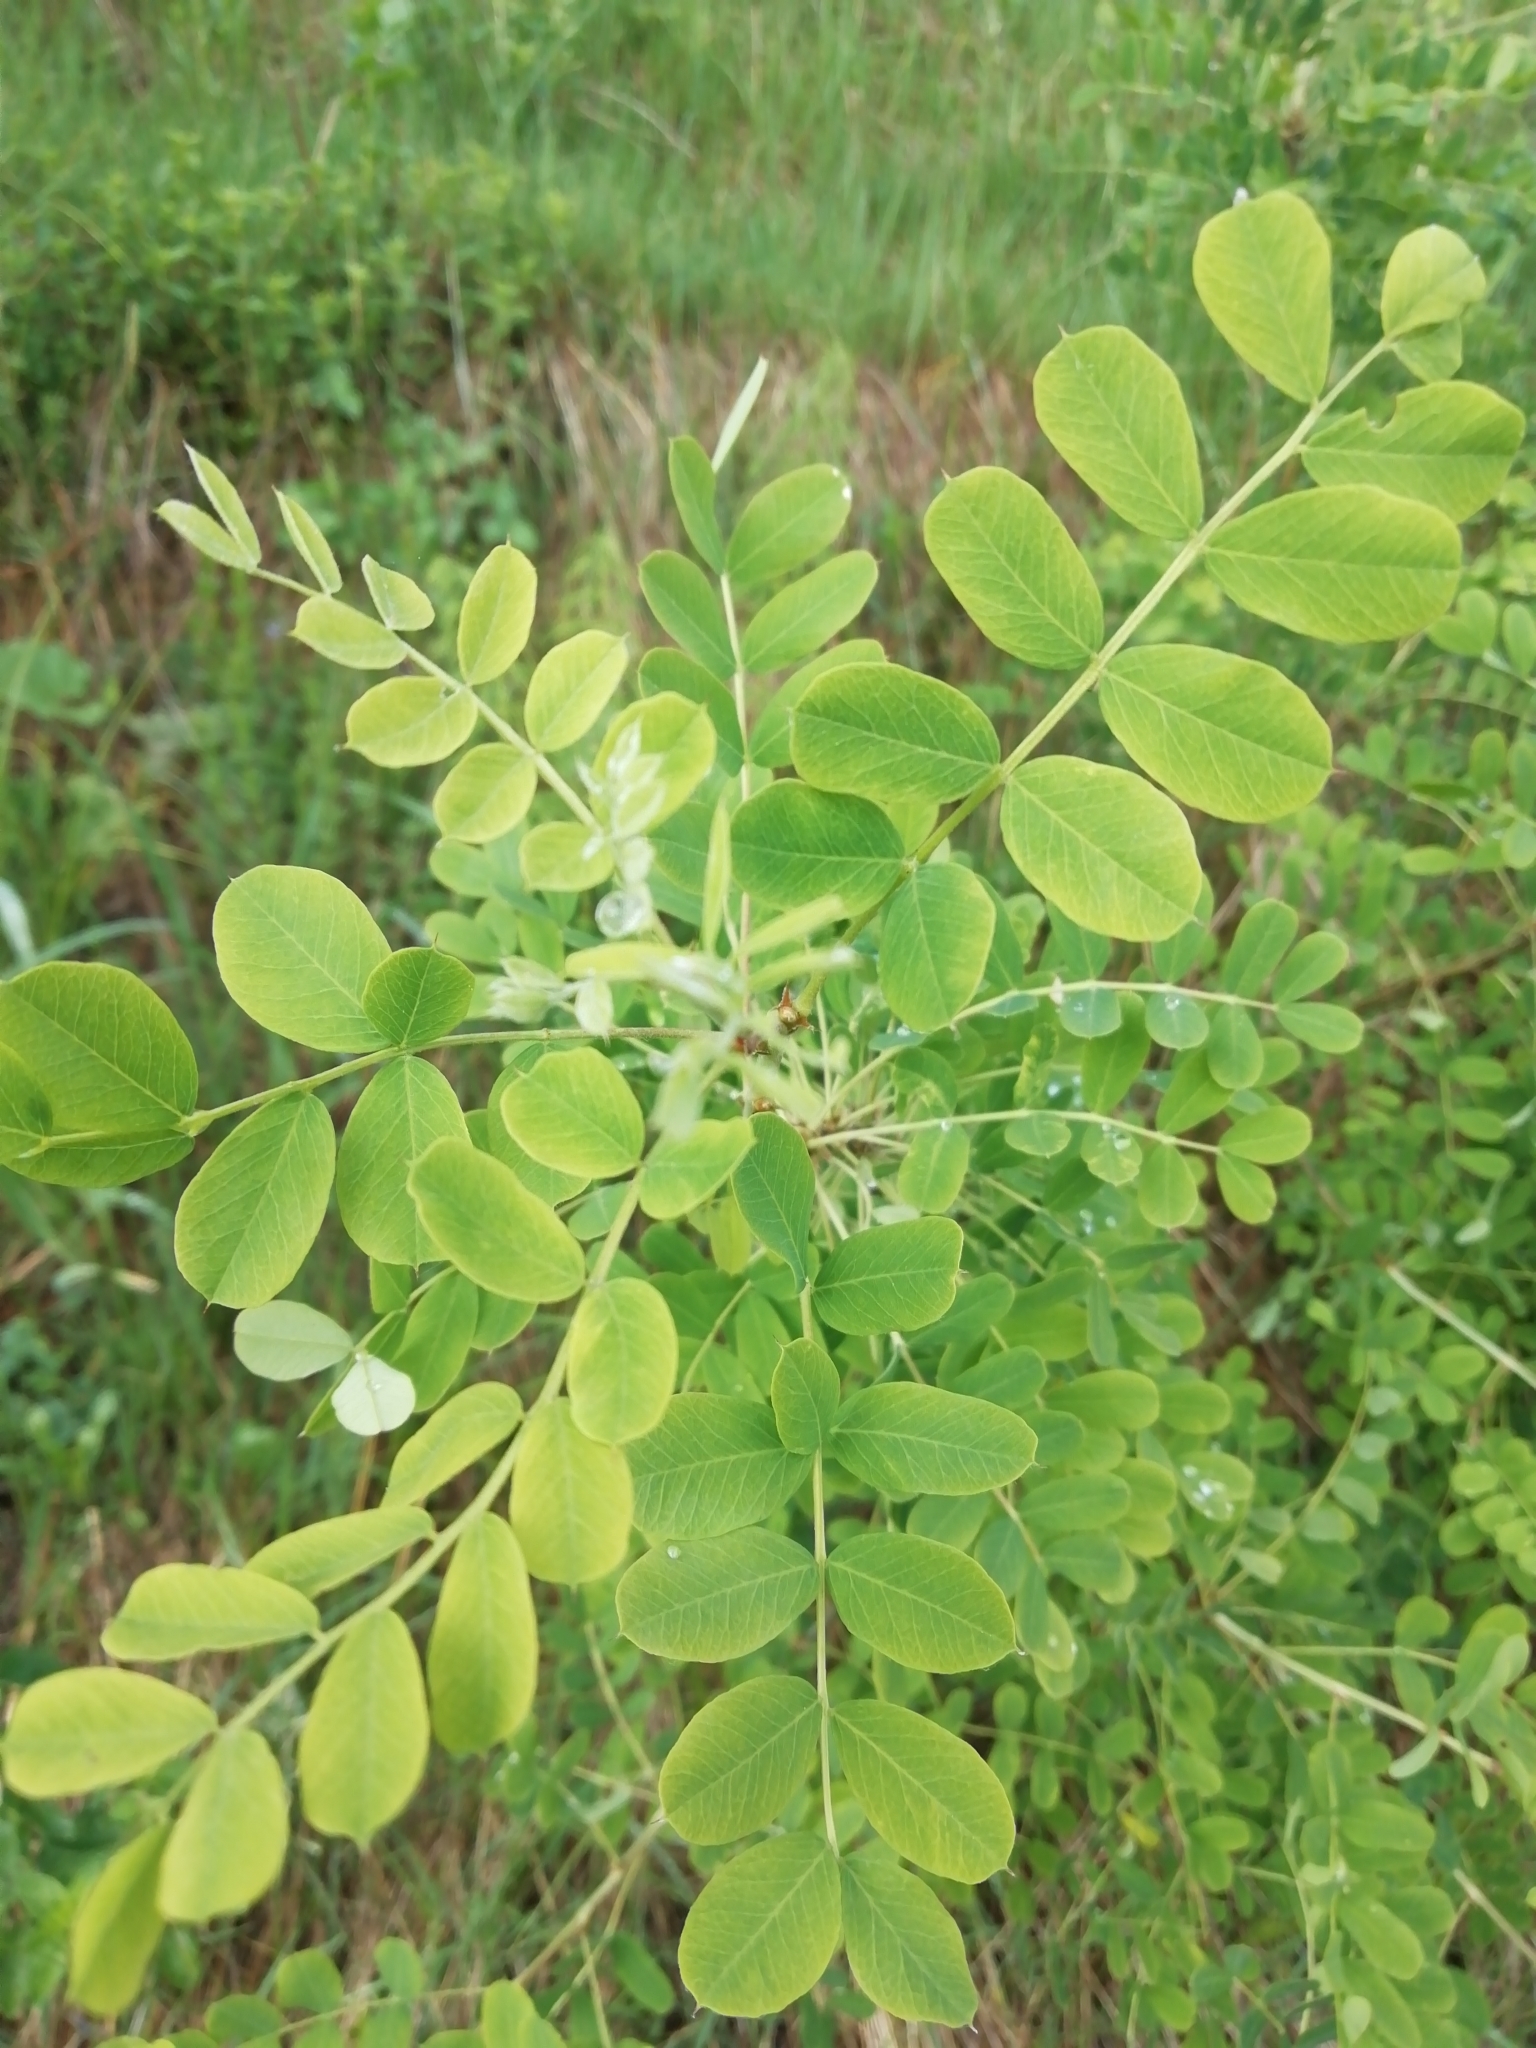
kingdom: Plantae
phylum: Tracheophyta
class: Magnoliopsida
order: Fabales
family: Fabaceae
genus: Caragana
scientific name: Caragana arborescens
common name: Siberian peashrub
